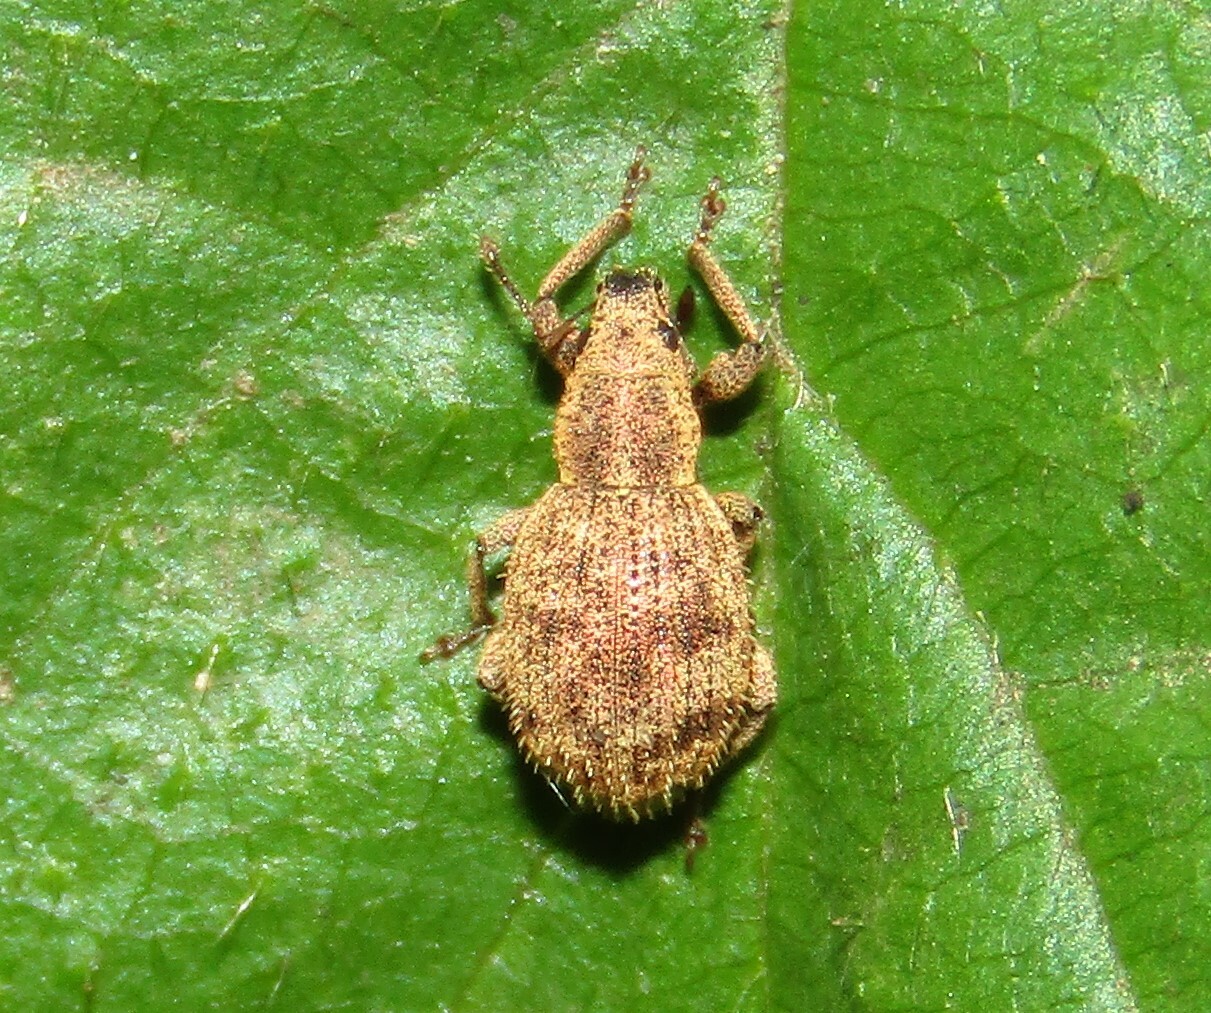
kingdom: Animalia
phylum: Arthropoda
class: Insecta
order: Coleoptera
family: Curculionidae
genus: Sciaphilus
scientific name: Sciaphilus asperatus
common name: Weevil
